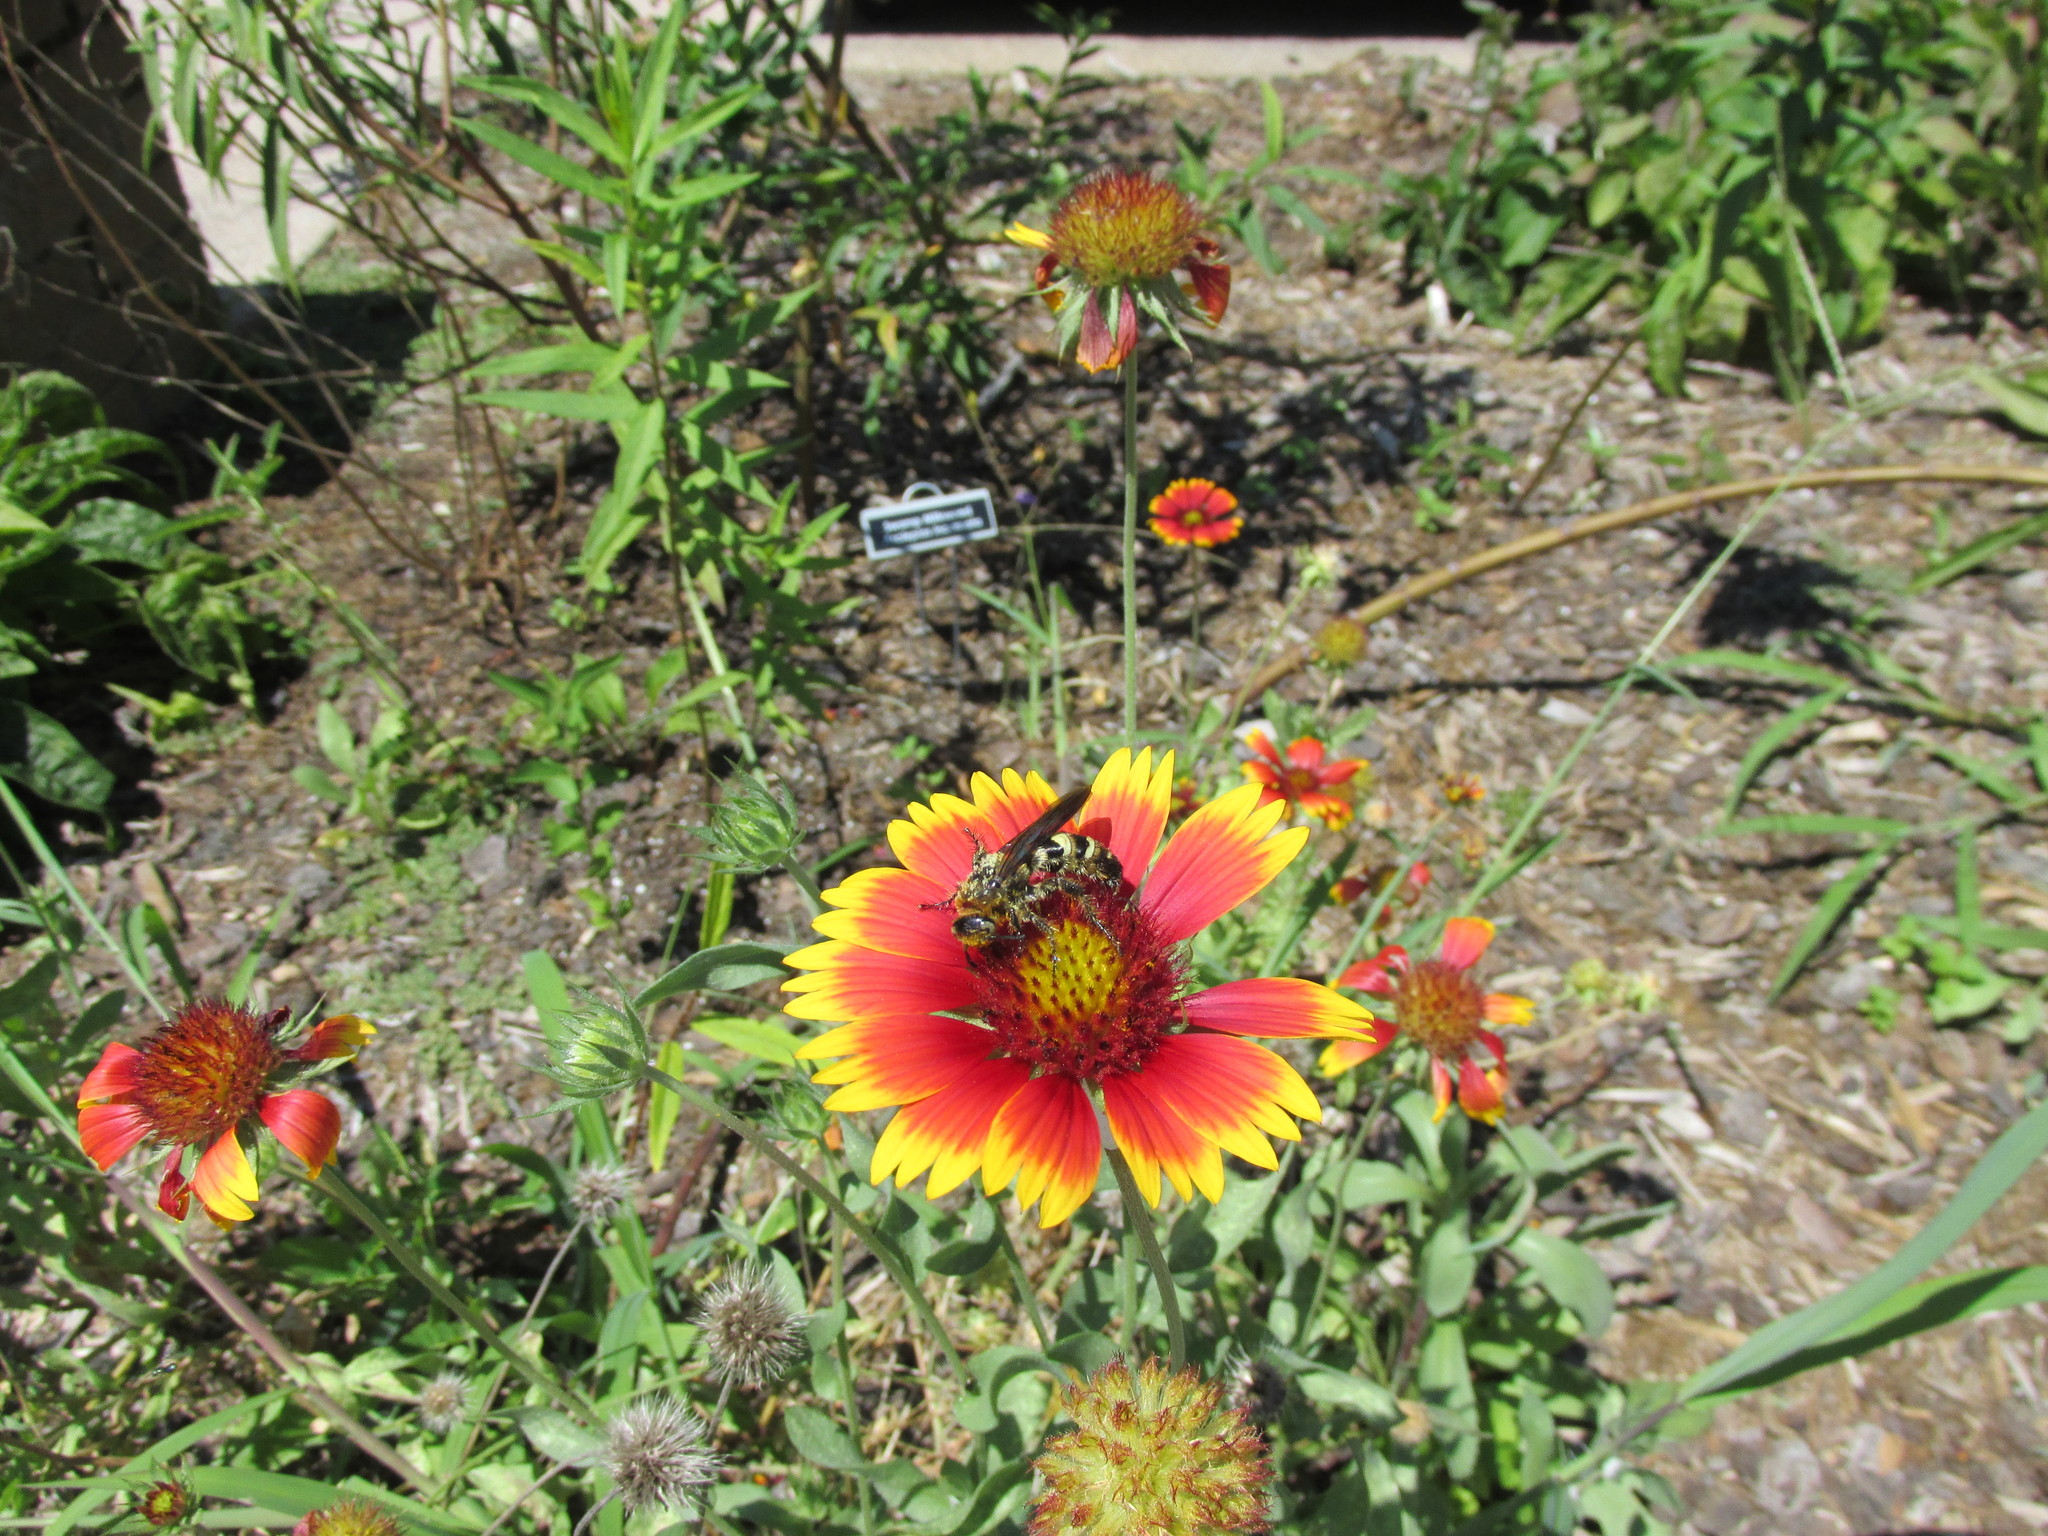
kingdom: Animalia
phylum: Arthropoda
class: Insecta
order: Hymenoptera
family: Scoliidae
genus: Dielis
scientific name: Dielis
